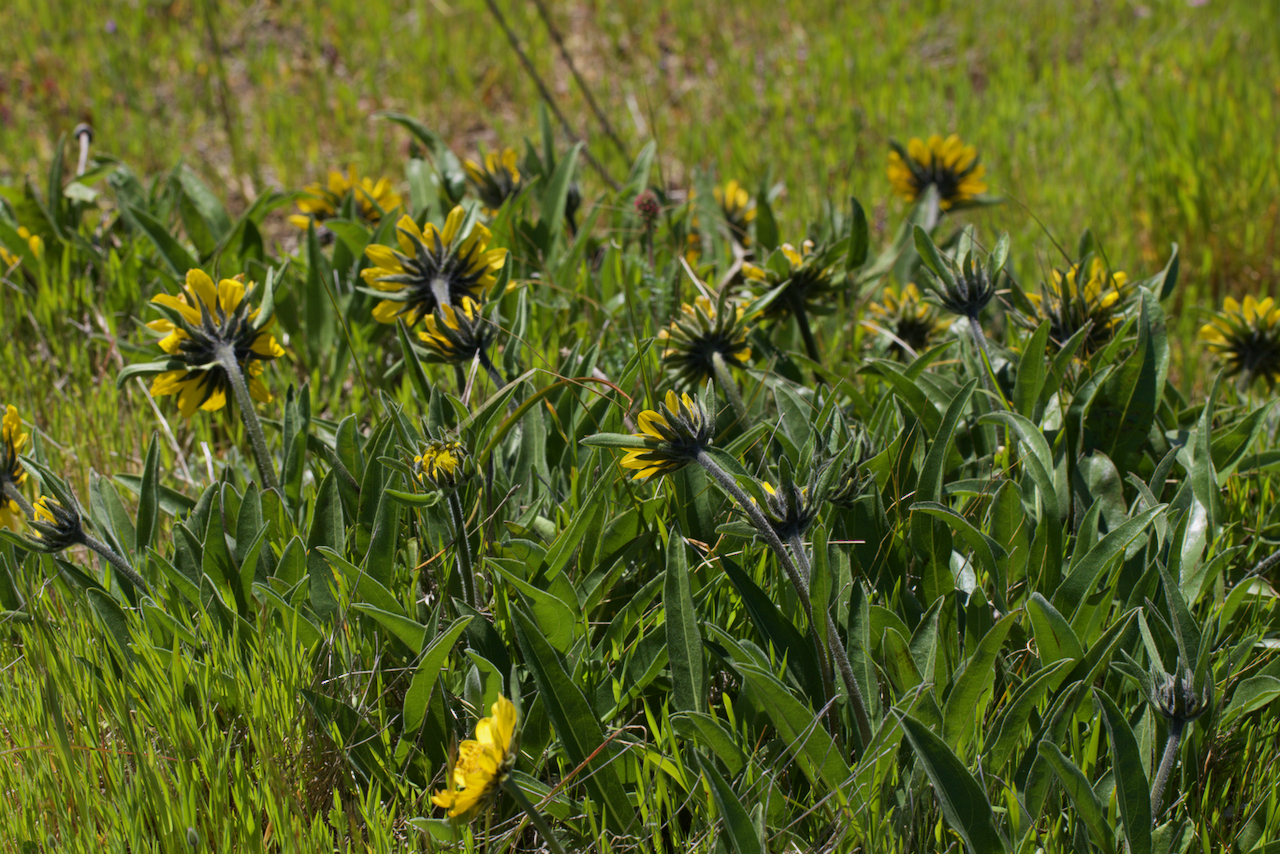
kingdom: Plantae
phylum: Tracheophyta
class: Magnoliopsida
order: Asterales
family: Asteraceae
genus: Helianthella
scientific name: Helianthella castanea
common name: Diablo helianthella
